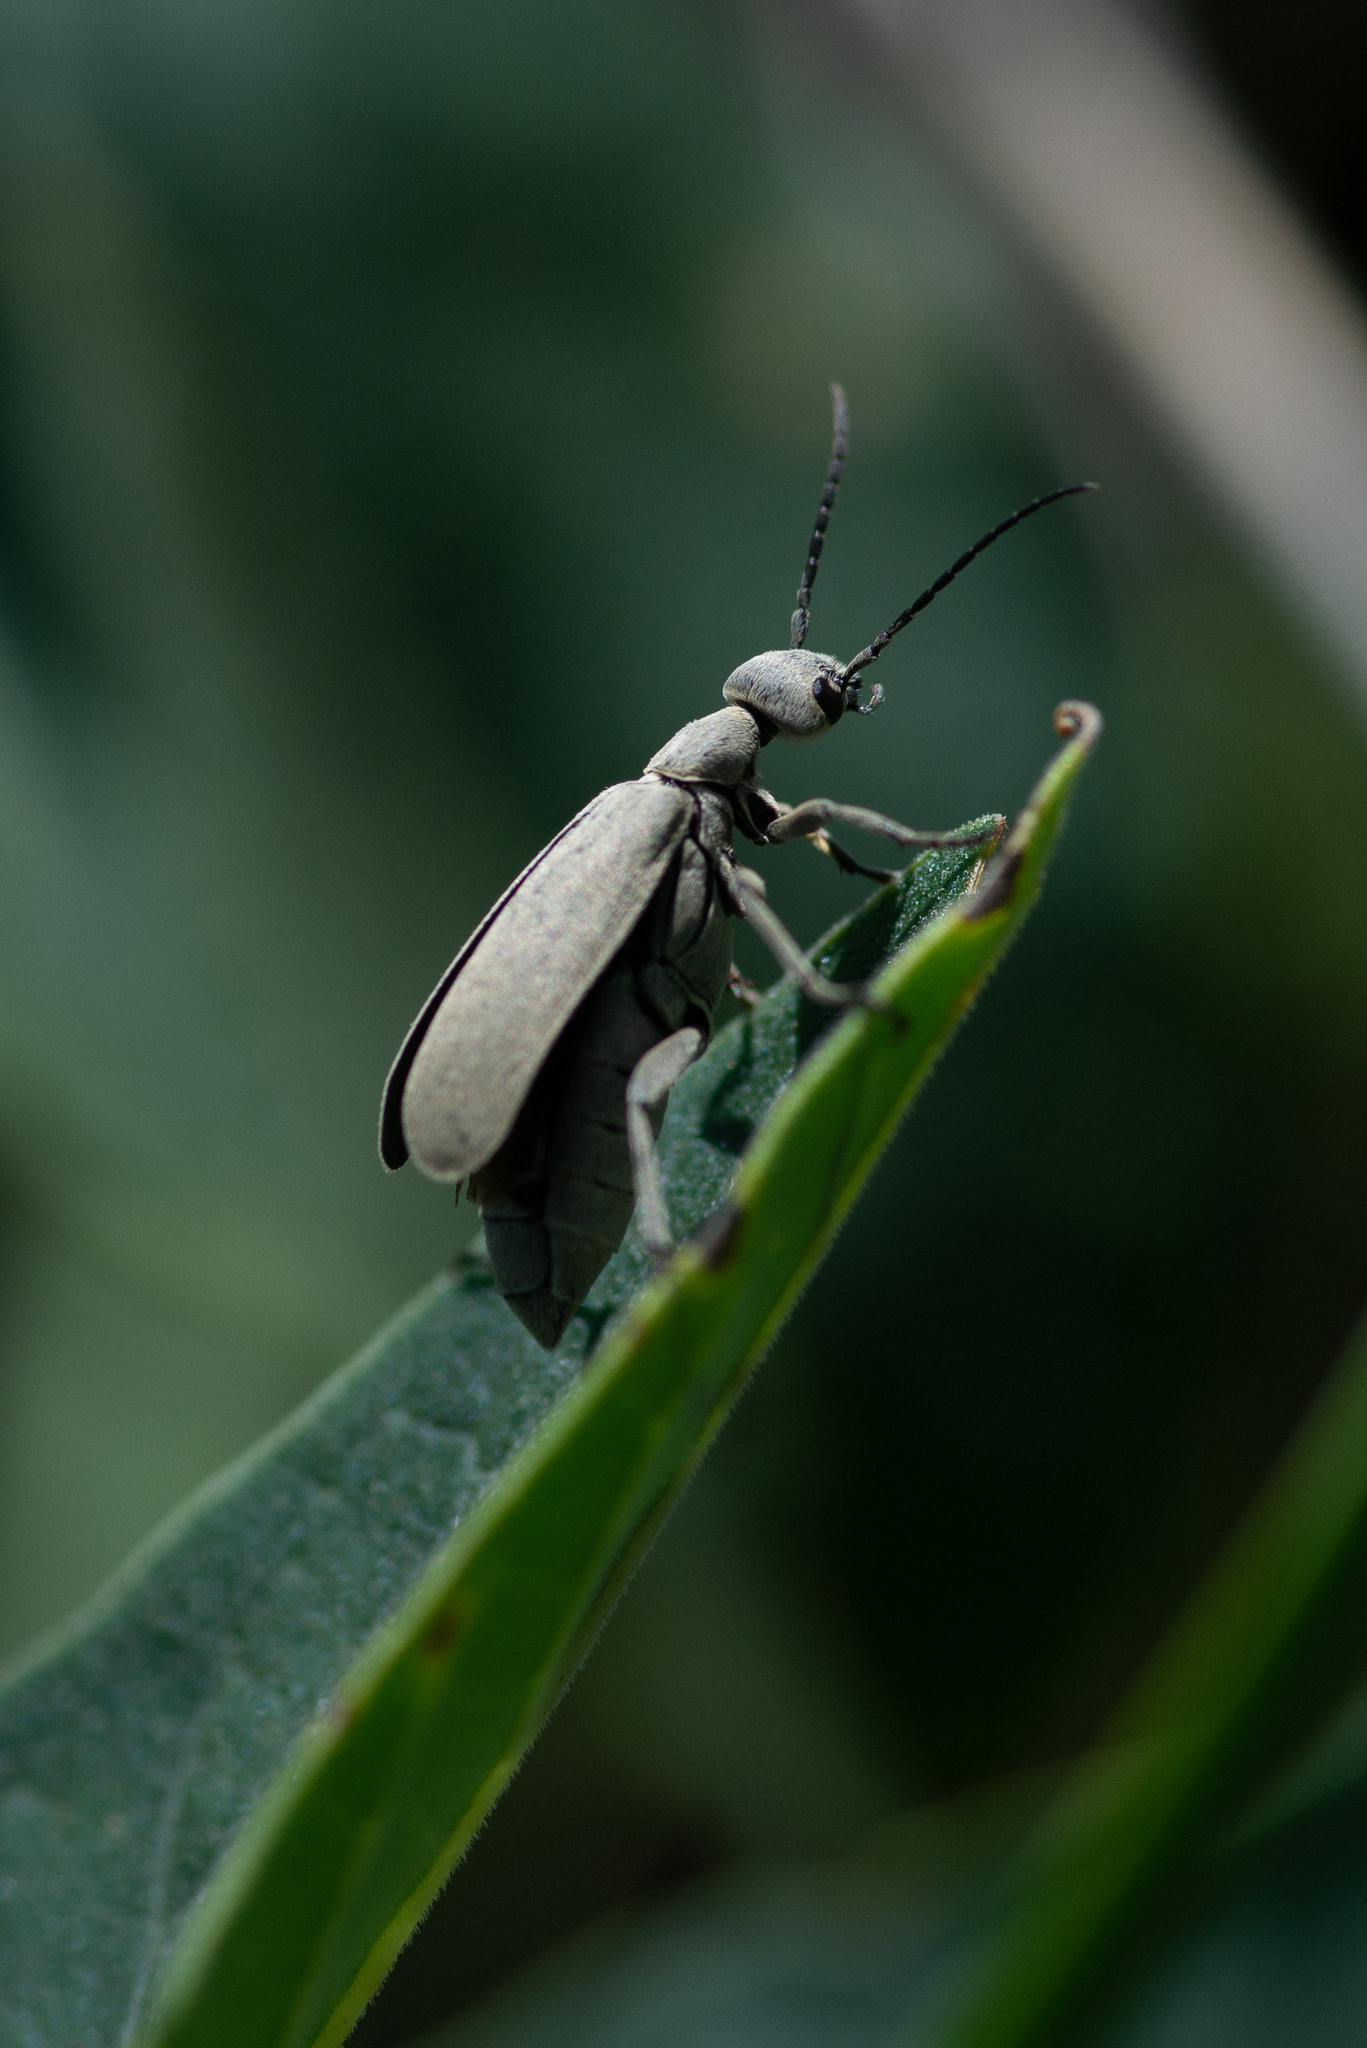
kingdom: Animalia
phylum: Arthropoda
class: Insecta
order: Coleoptera
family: Meloidae
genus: Epicauta
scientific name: Epicauta alpina
